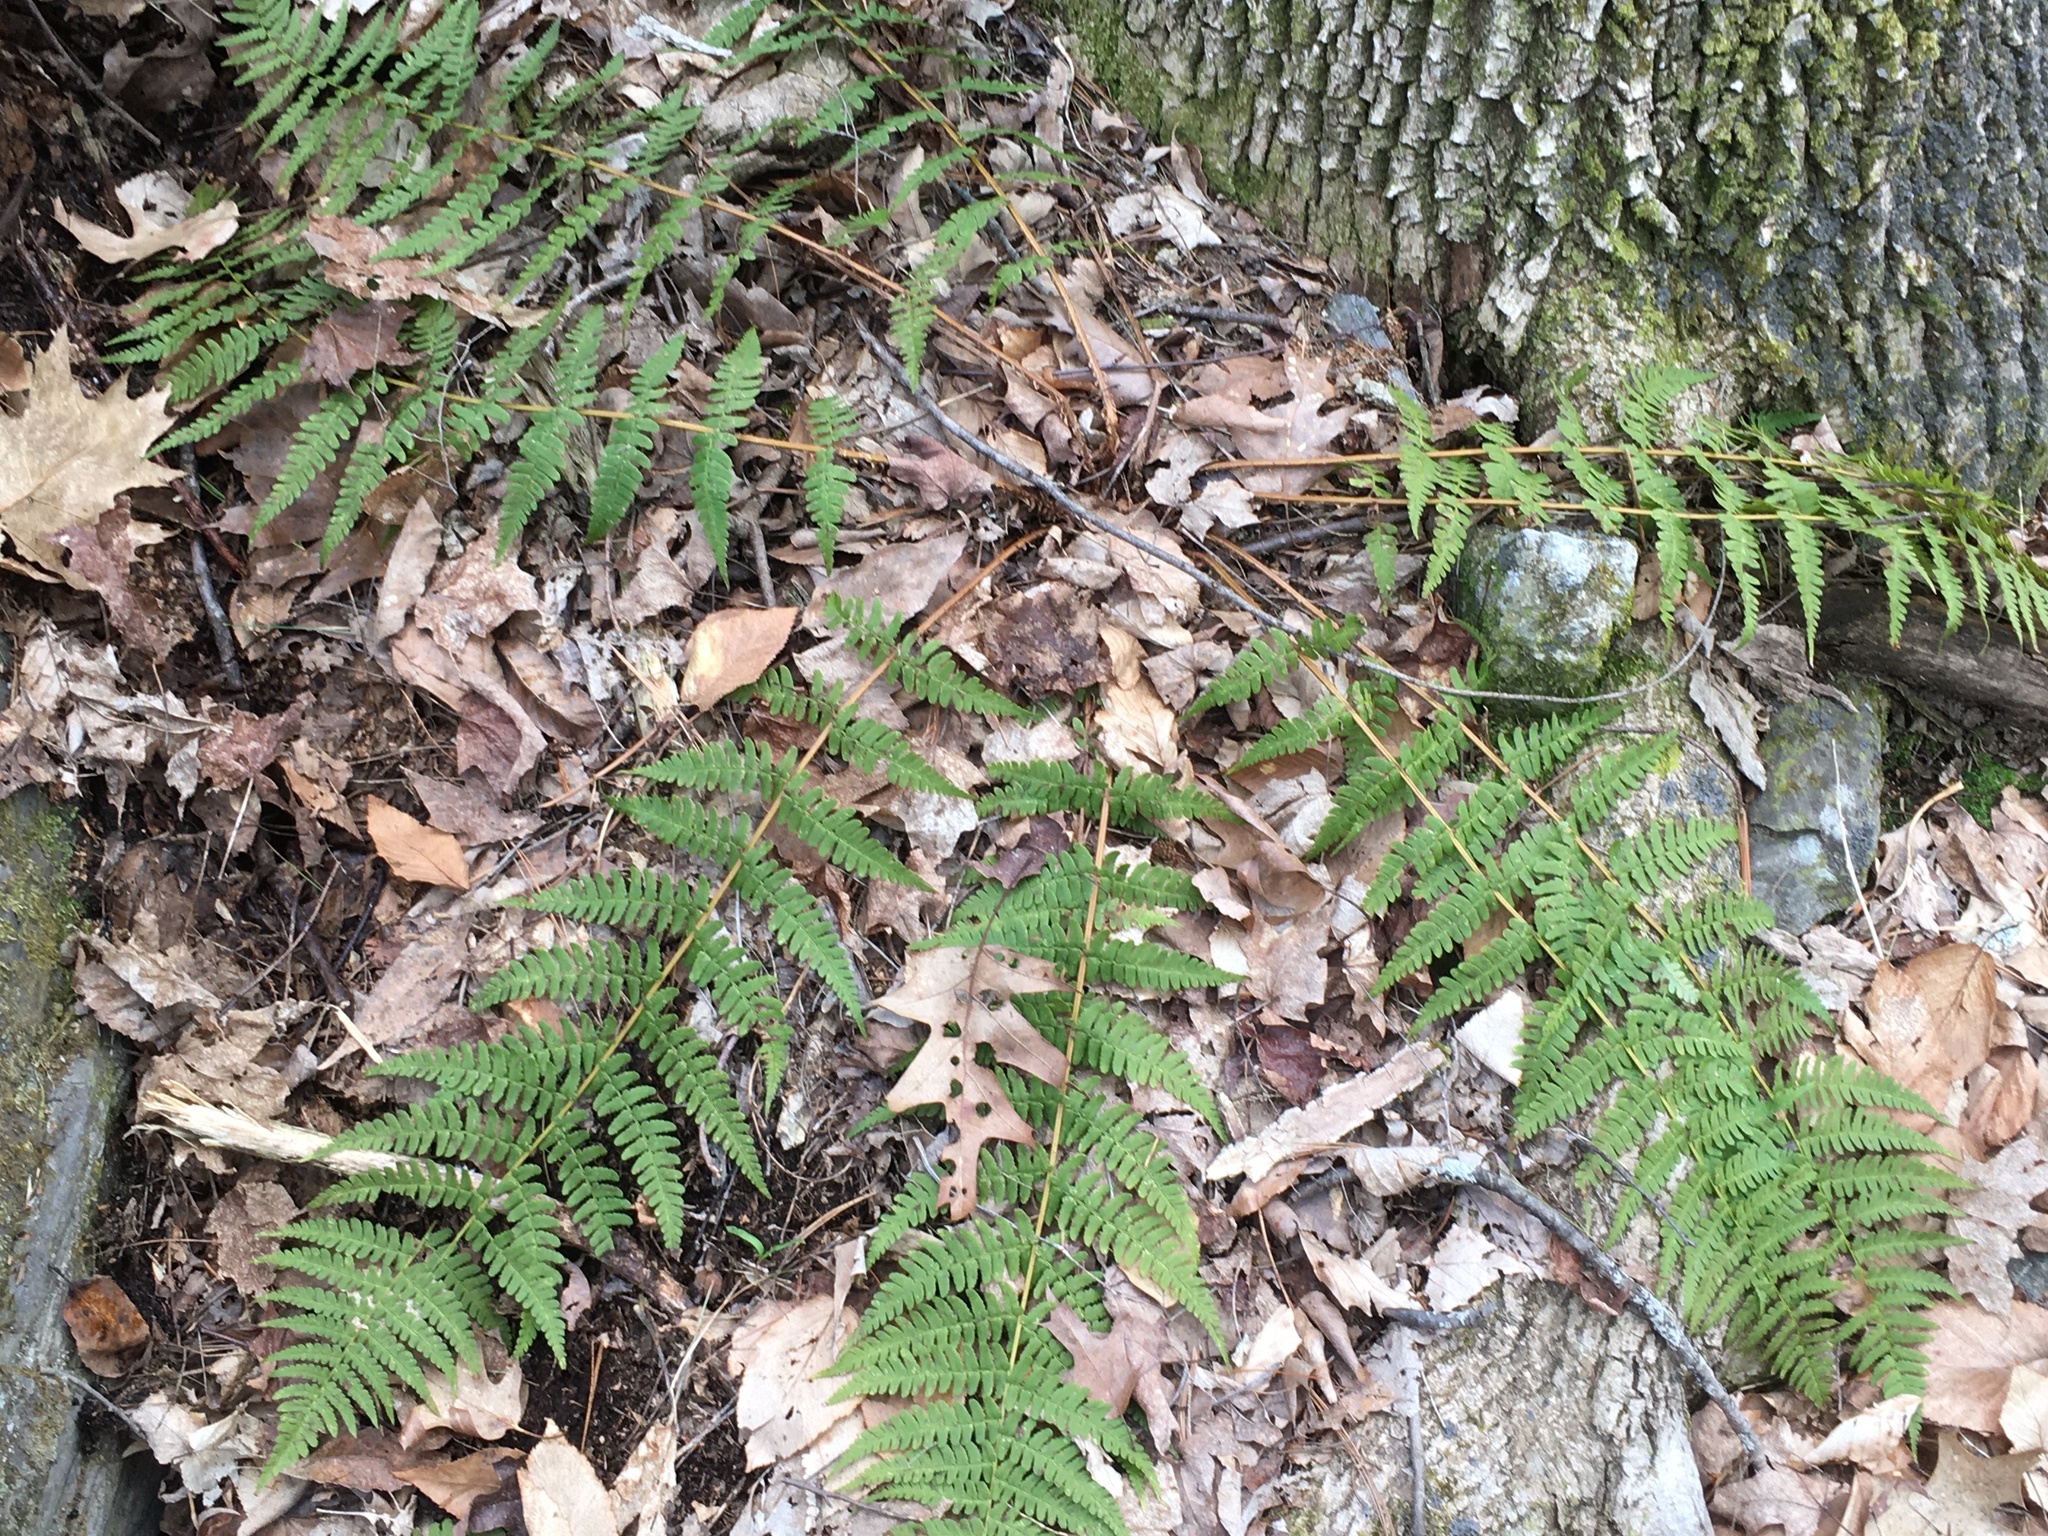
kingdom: Plantae
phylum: Tracheophyta
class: Polypodiopsida
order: Polypodiales
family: Dryopteridaceae
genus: Dryopteris
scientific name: Dryopteris marginalis
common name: Marginal wood fern
